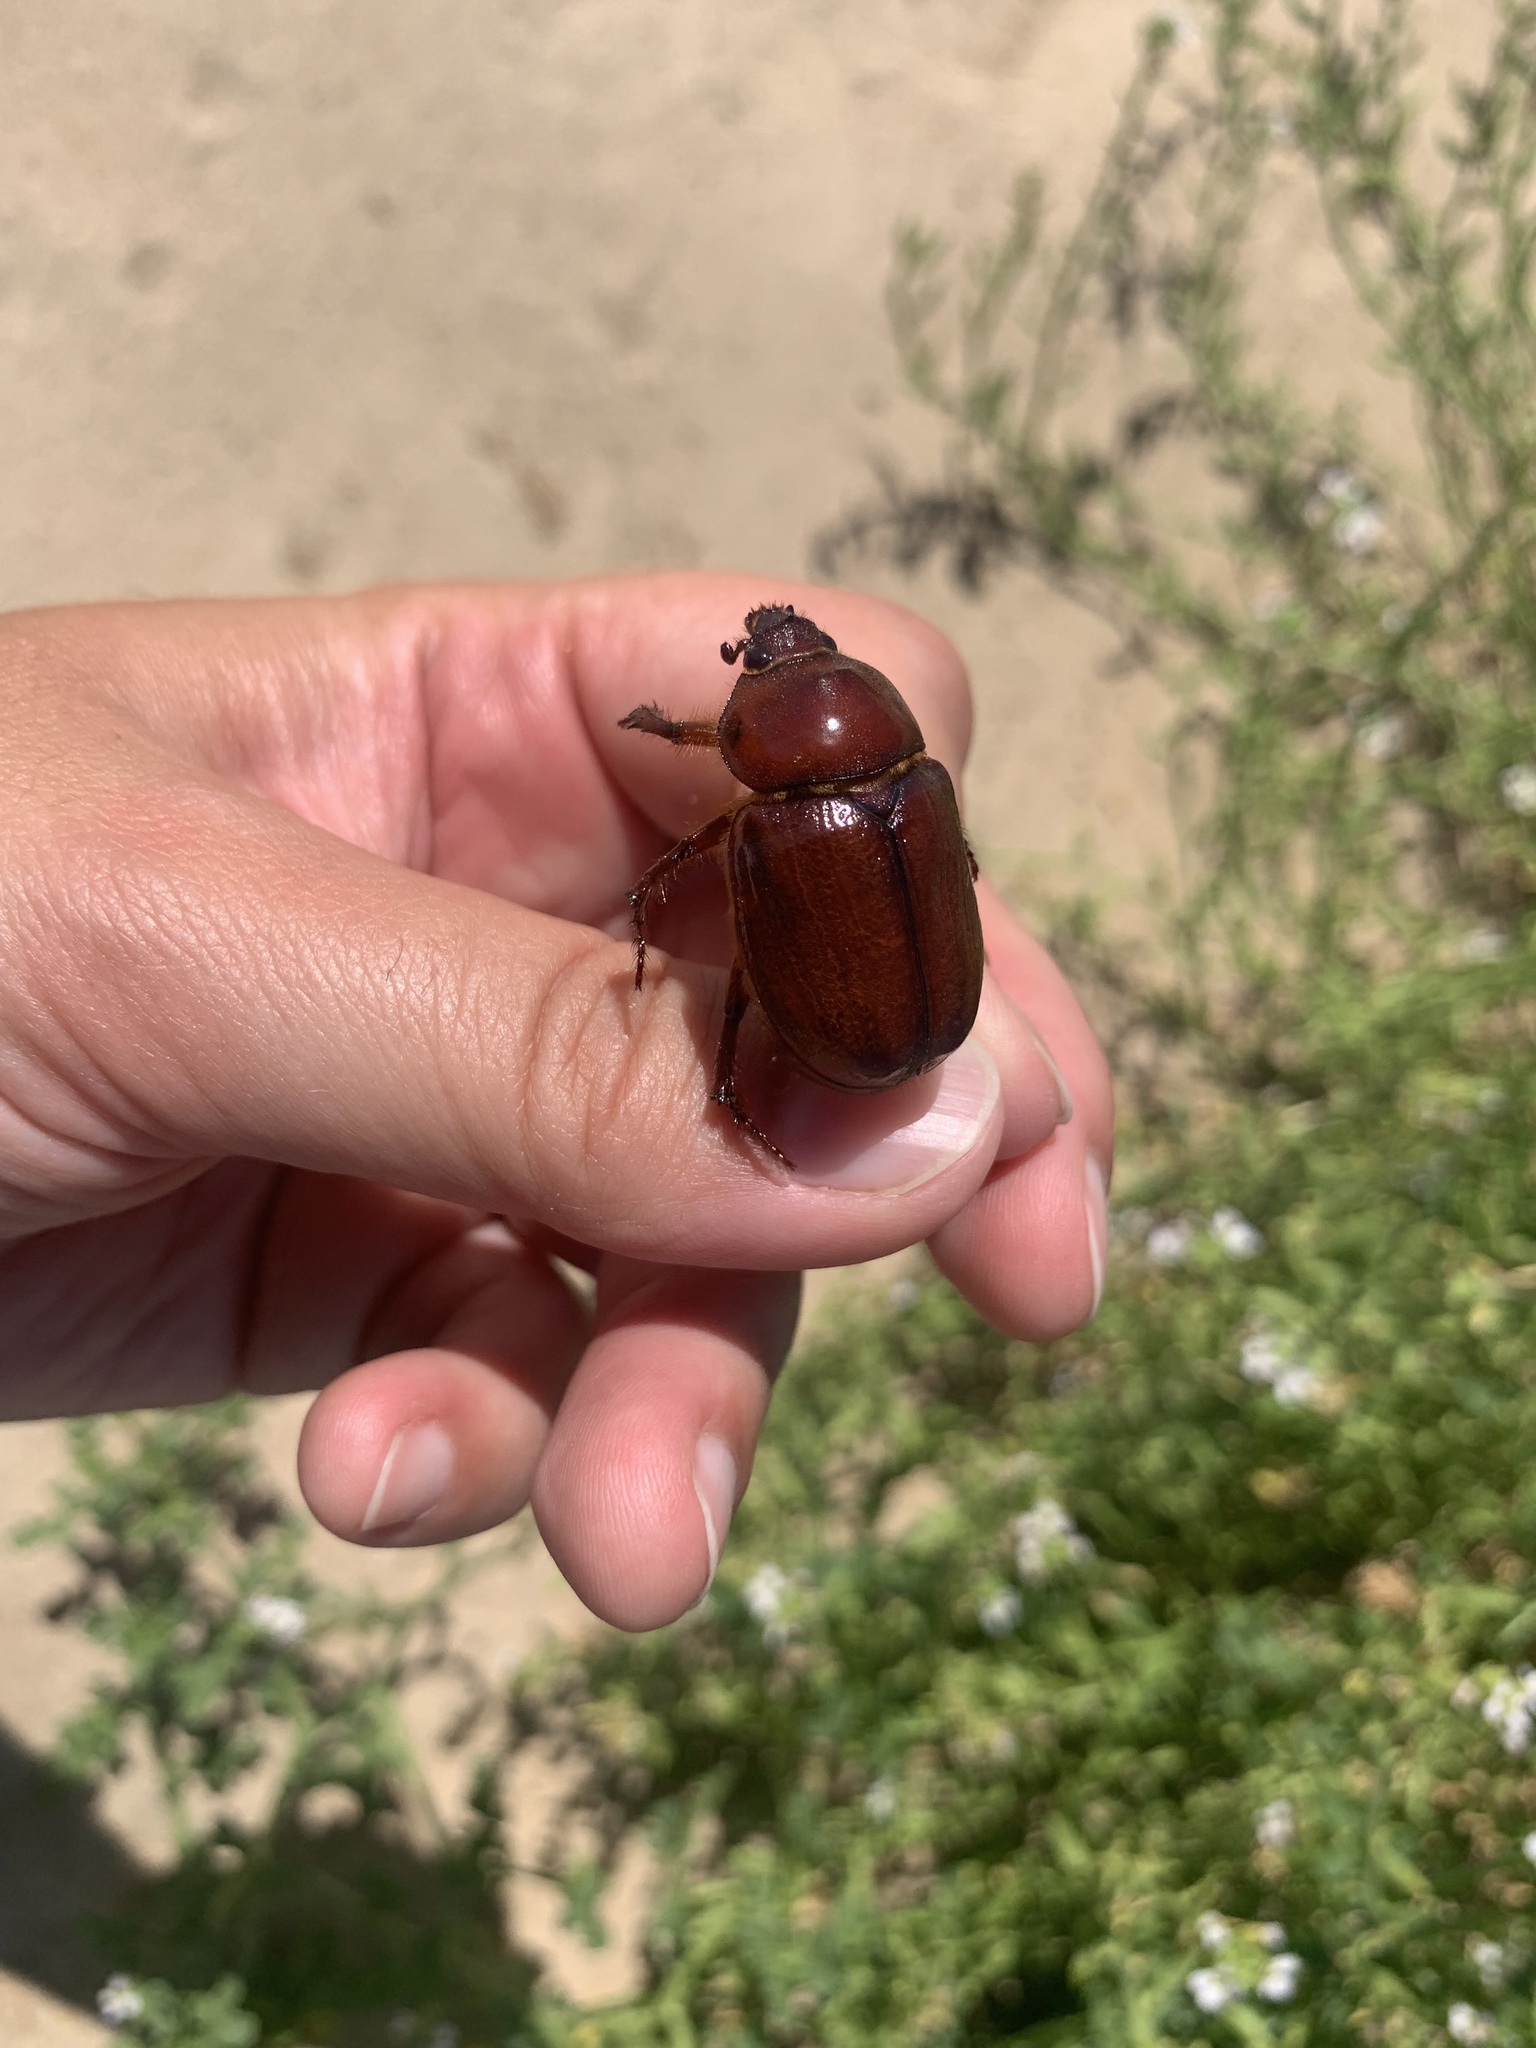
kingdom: Animalia
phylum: Arthropoda
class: Insecta
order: Coleoptera
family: Scarabaeidae
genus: Thronistes
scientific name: Thronistes rouxi
